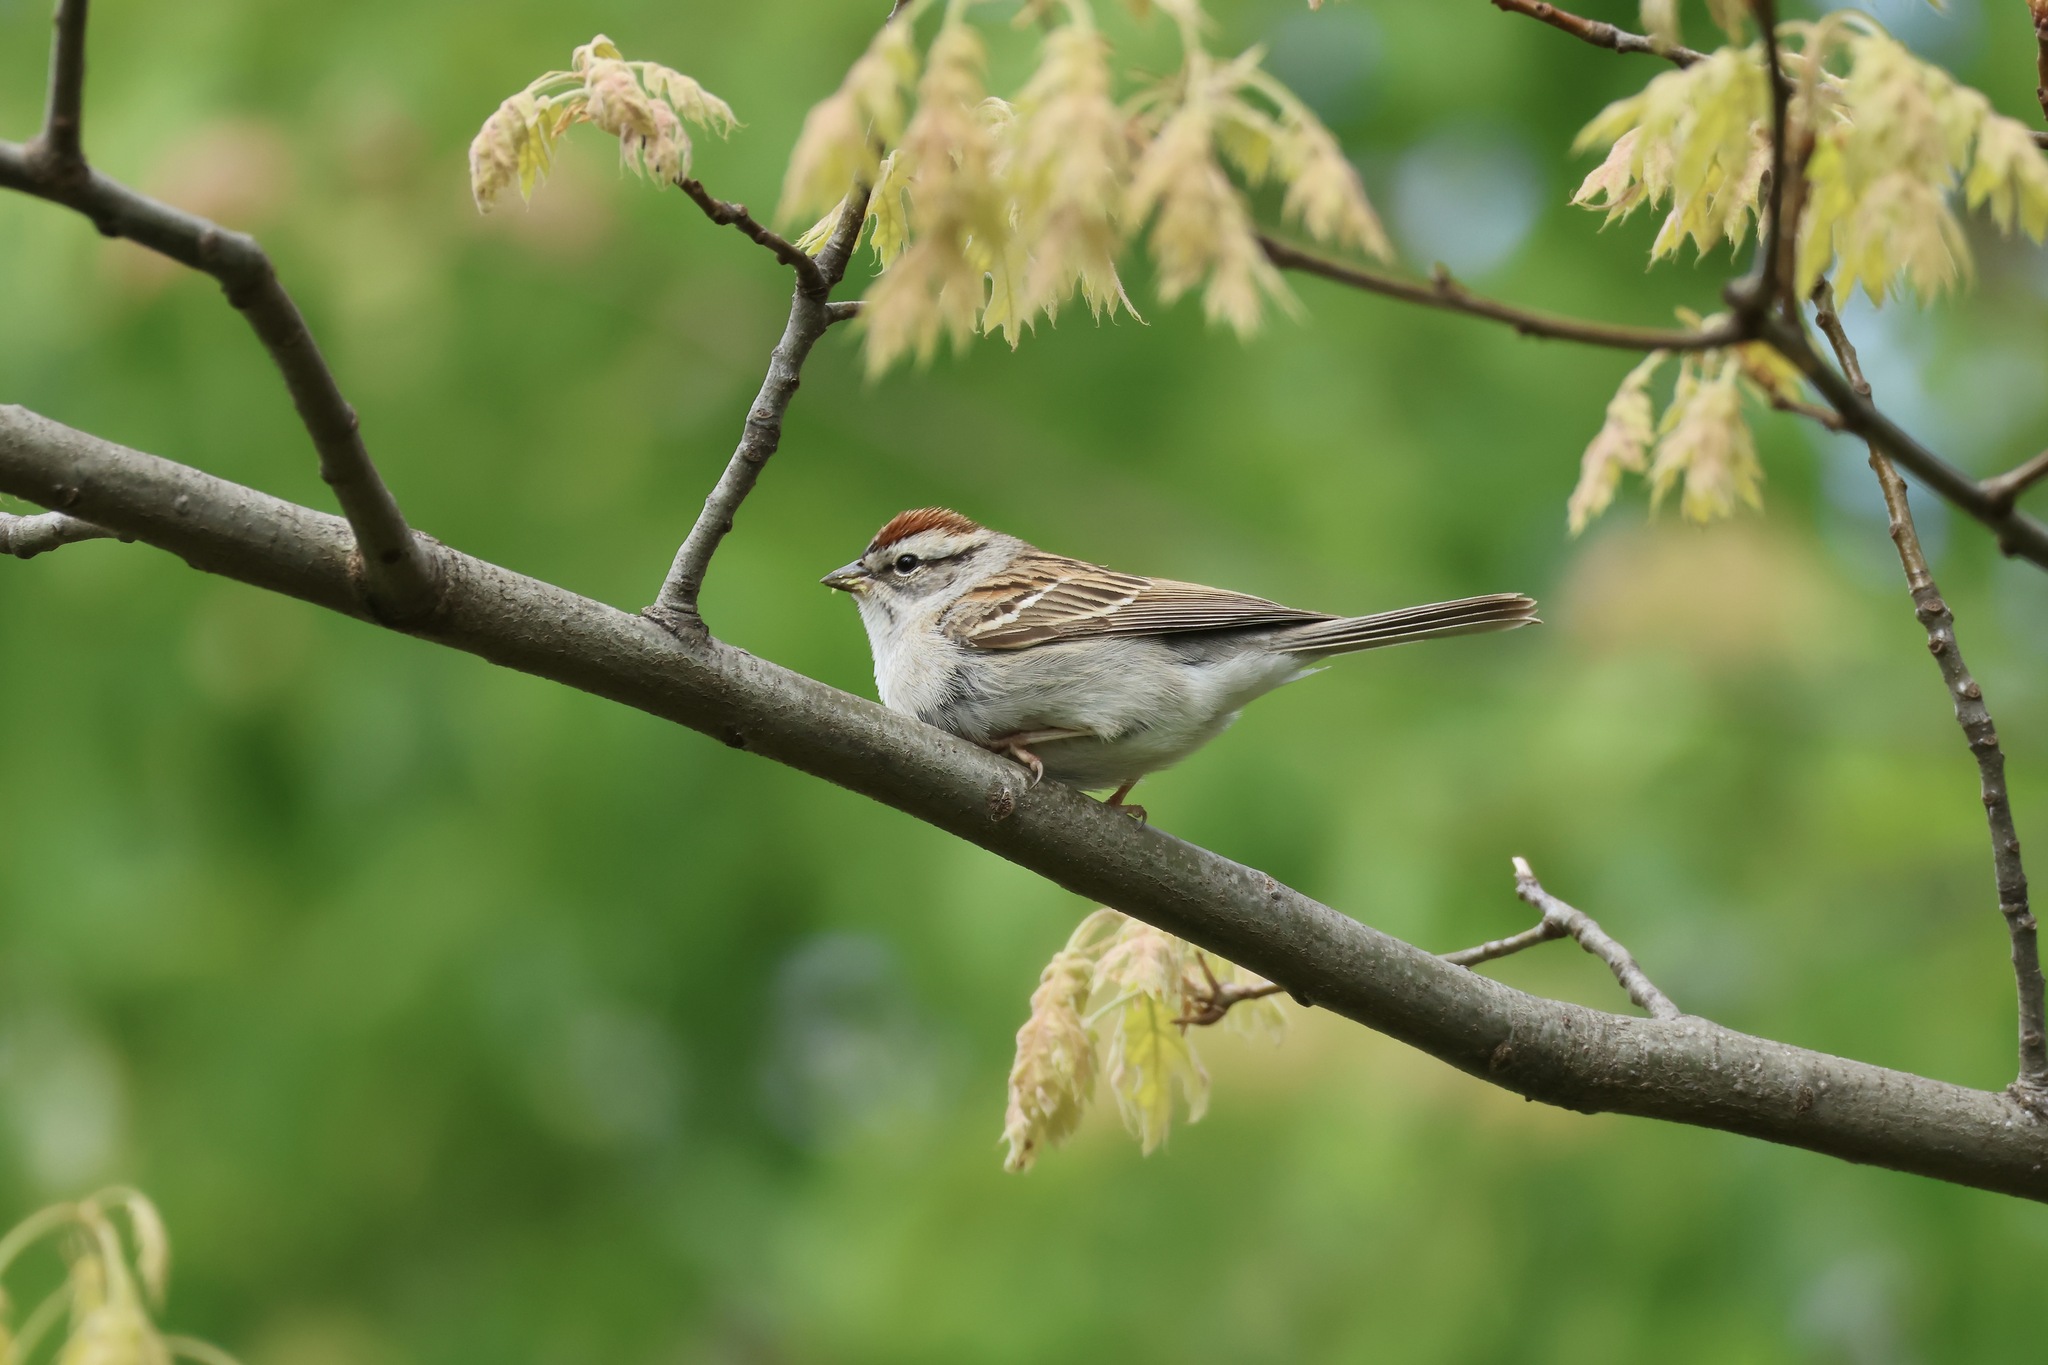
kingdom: Animalia
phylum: Chordata
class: Aves
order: Passeriformes
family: Passerellidae
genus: Spizella
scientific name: Spizella passerina
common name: Chipping sparrow
